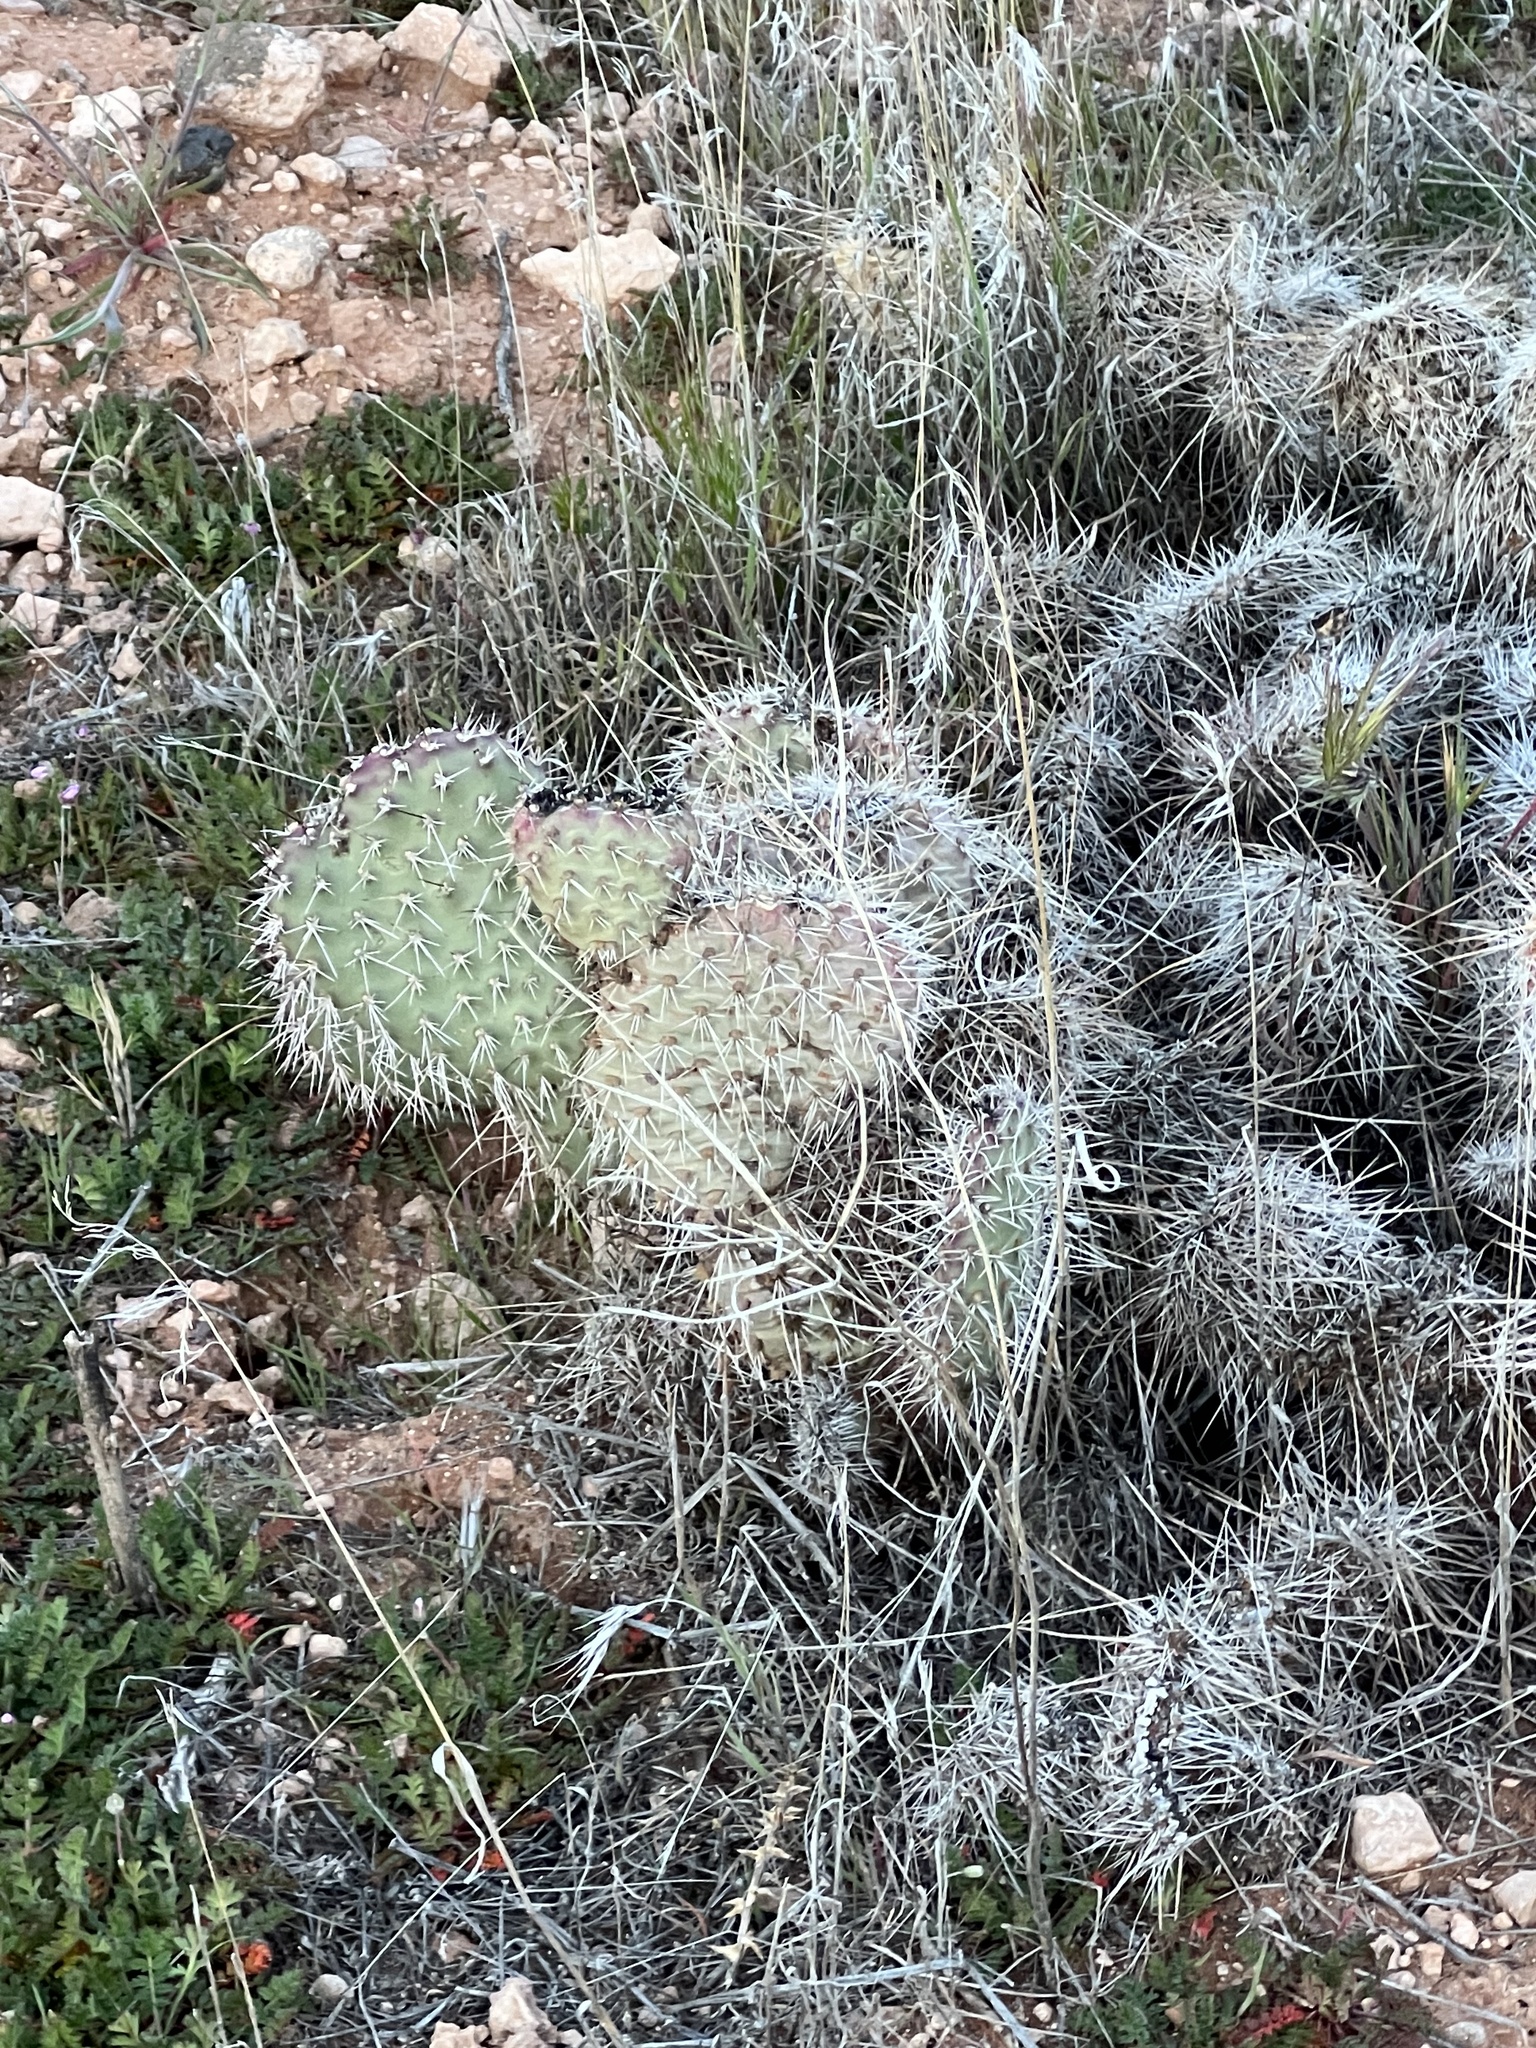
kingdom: Plantae
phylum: Tracheophyta
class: Magnoliopsida
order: Caryophyllales
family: Cactaceae
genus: Opuntia
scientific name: Opuntia polyacantha
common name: Plains prickly-pear
